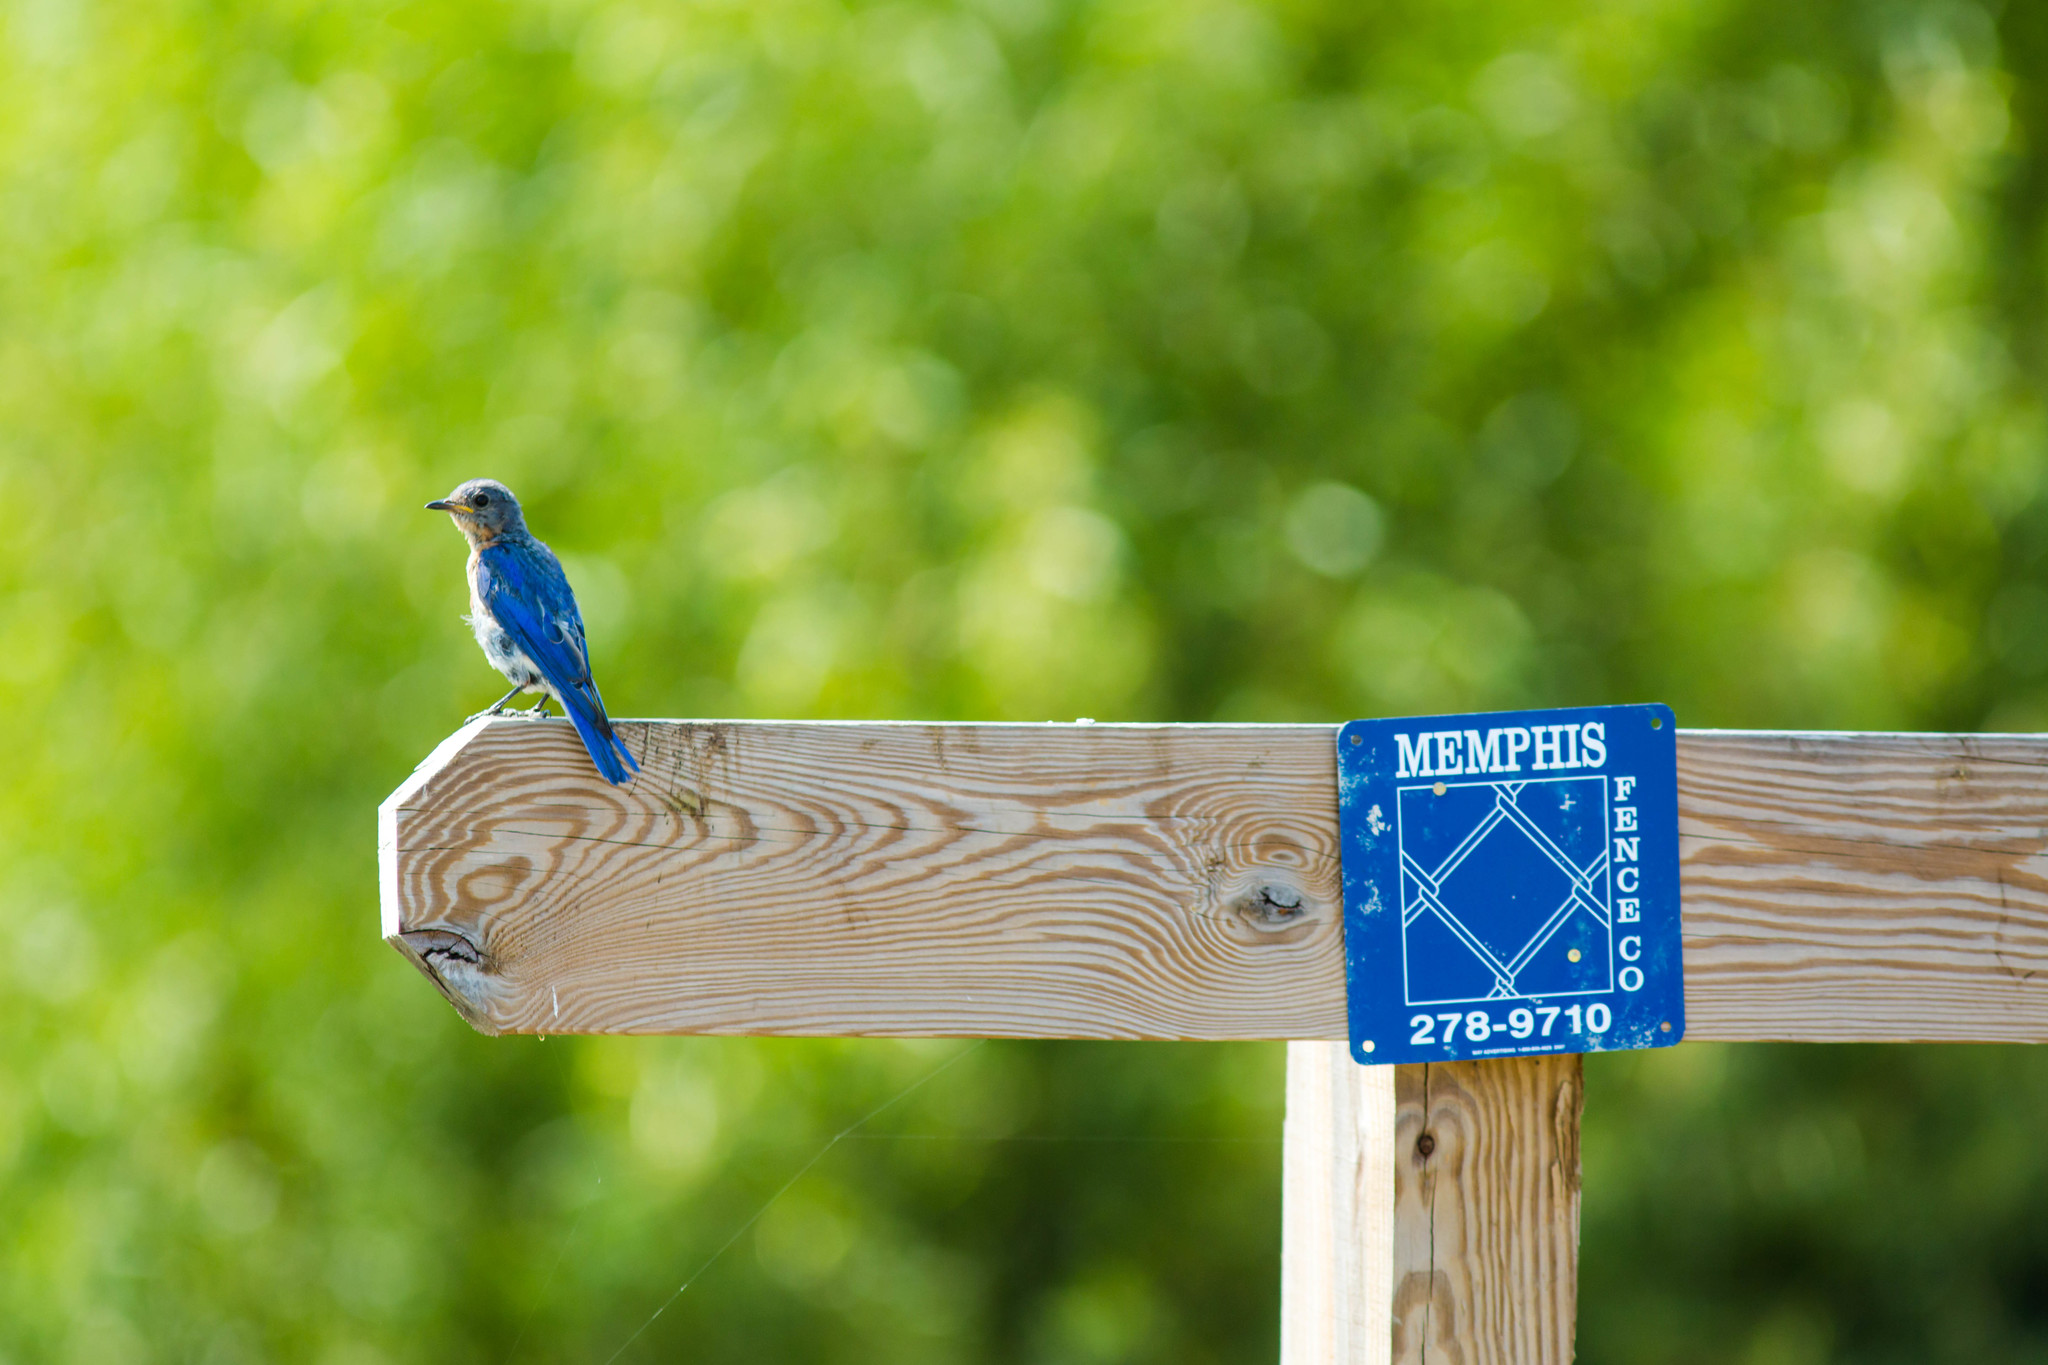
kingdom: Animalia
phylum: Chordata
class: Aves
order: Passeriformes
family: Turdidae
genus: Sialia
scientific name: Sialia sialis
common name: Eastern bluebird
